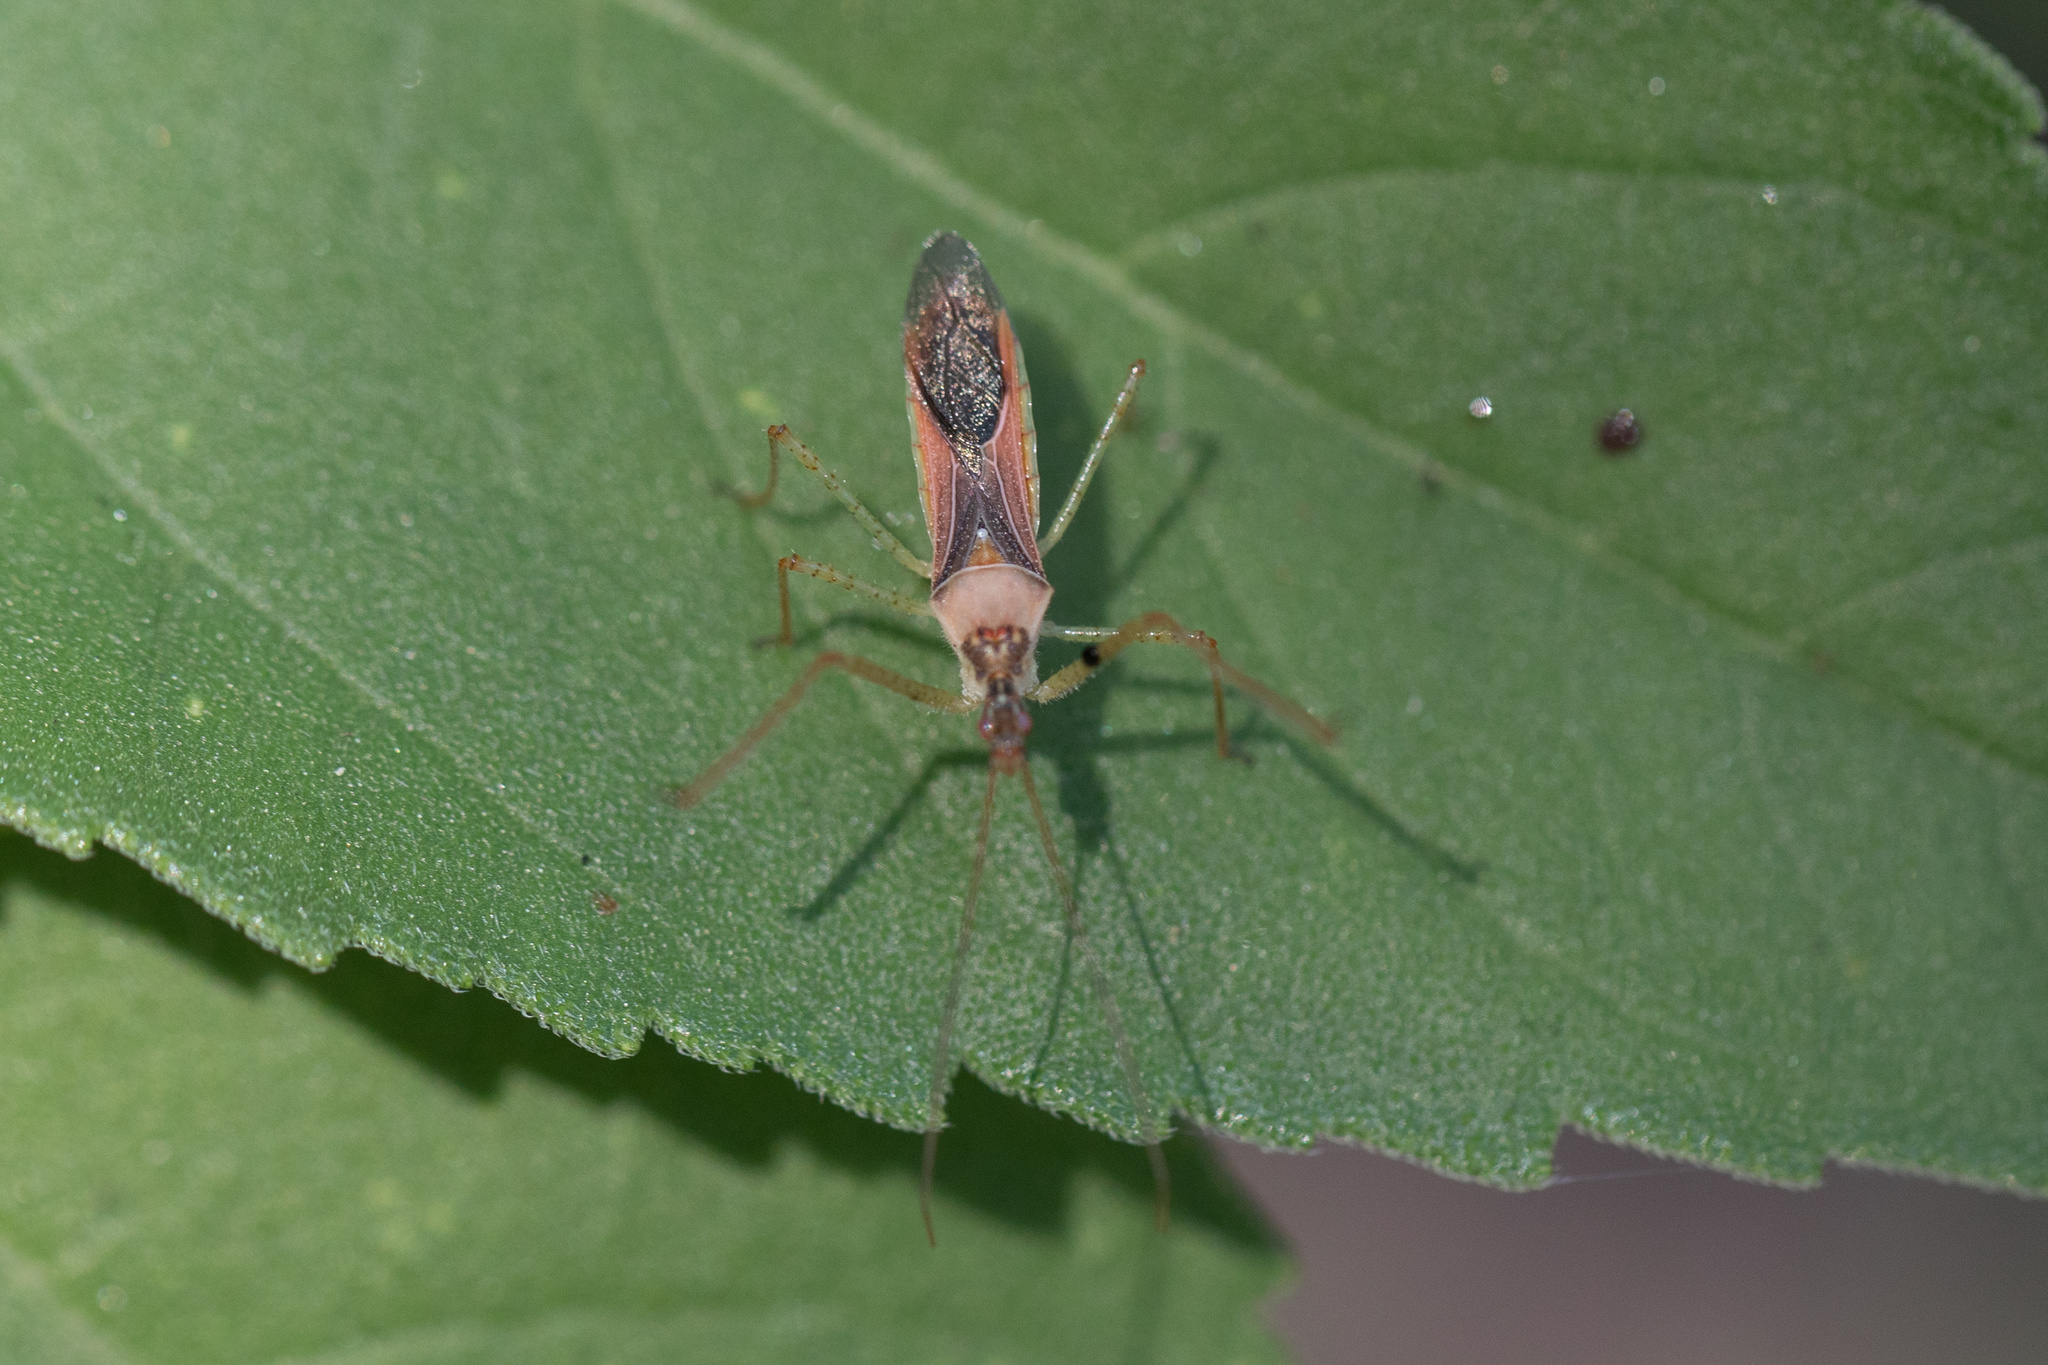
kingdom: Animalia
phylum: Arthropoda
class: Insecta
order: Hemiptera
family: Reduviidae
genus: Zelus
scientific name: Zelus renardii
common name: Assassin bug
